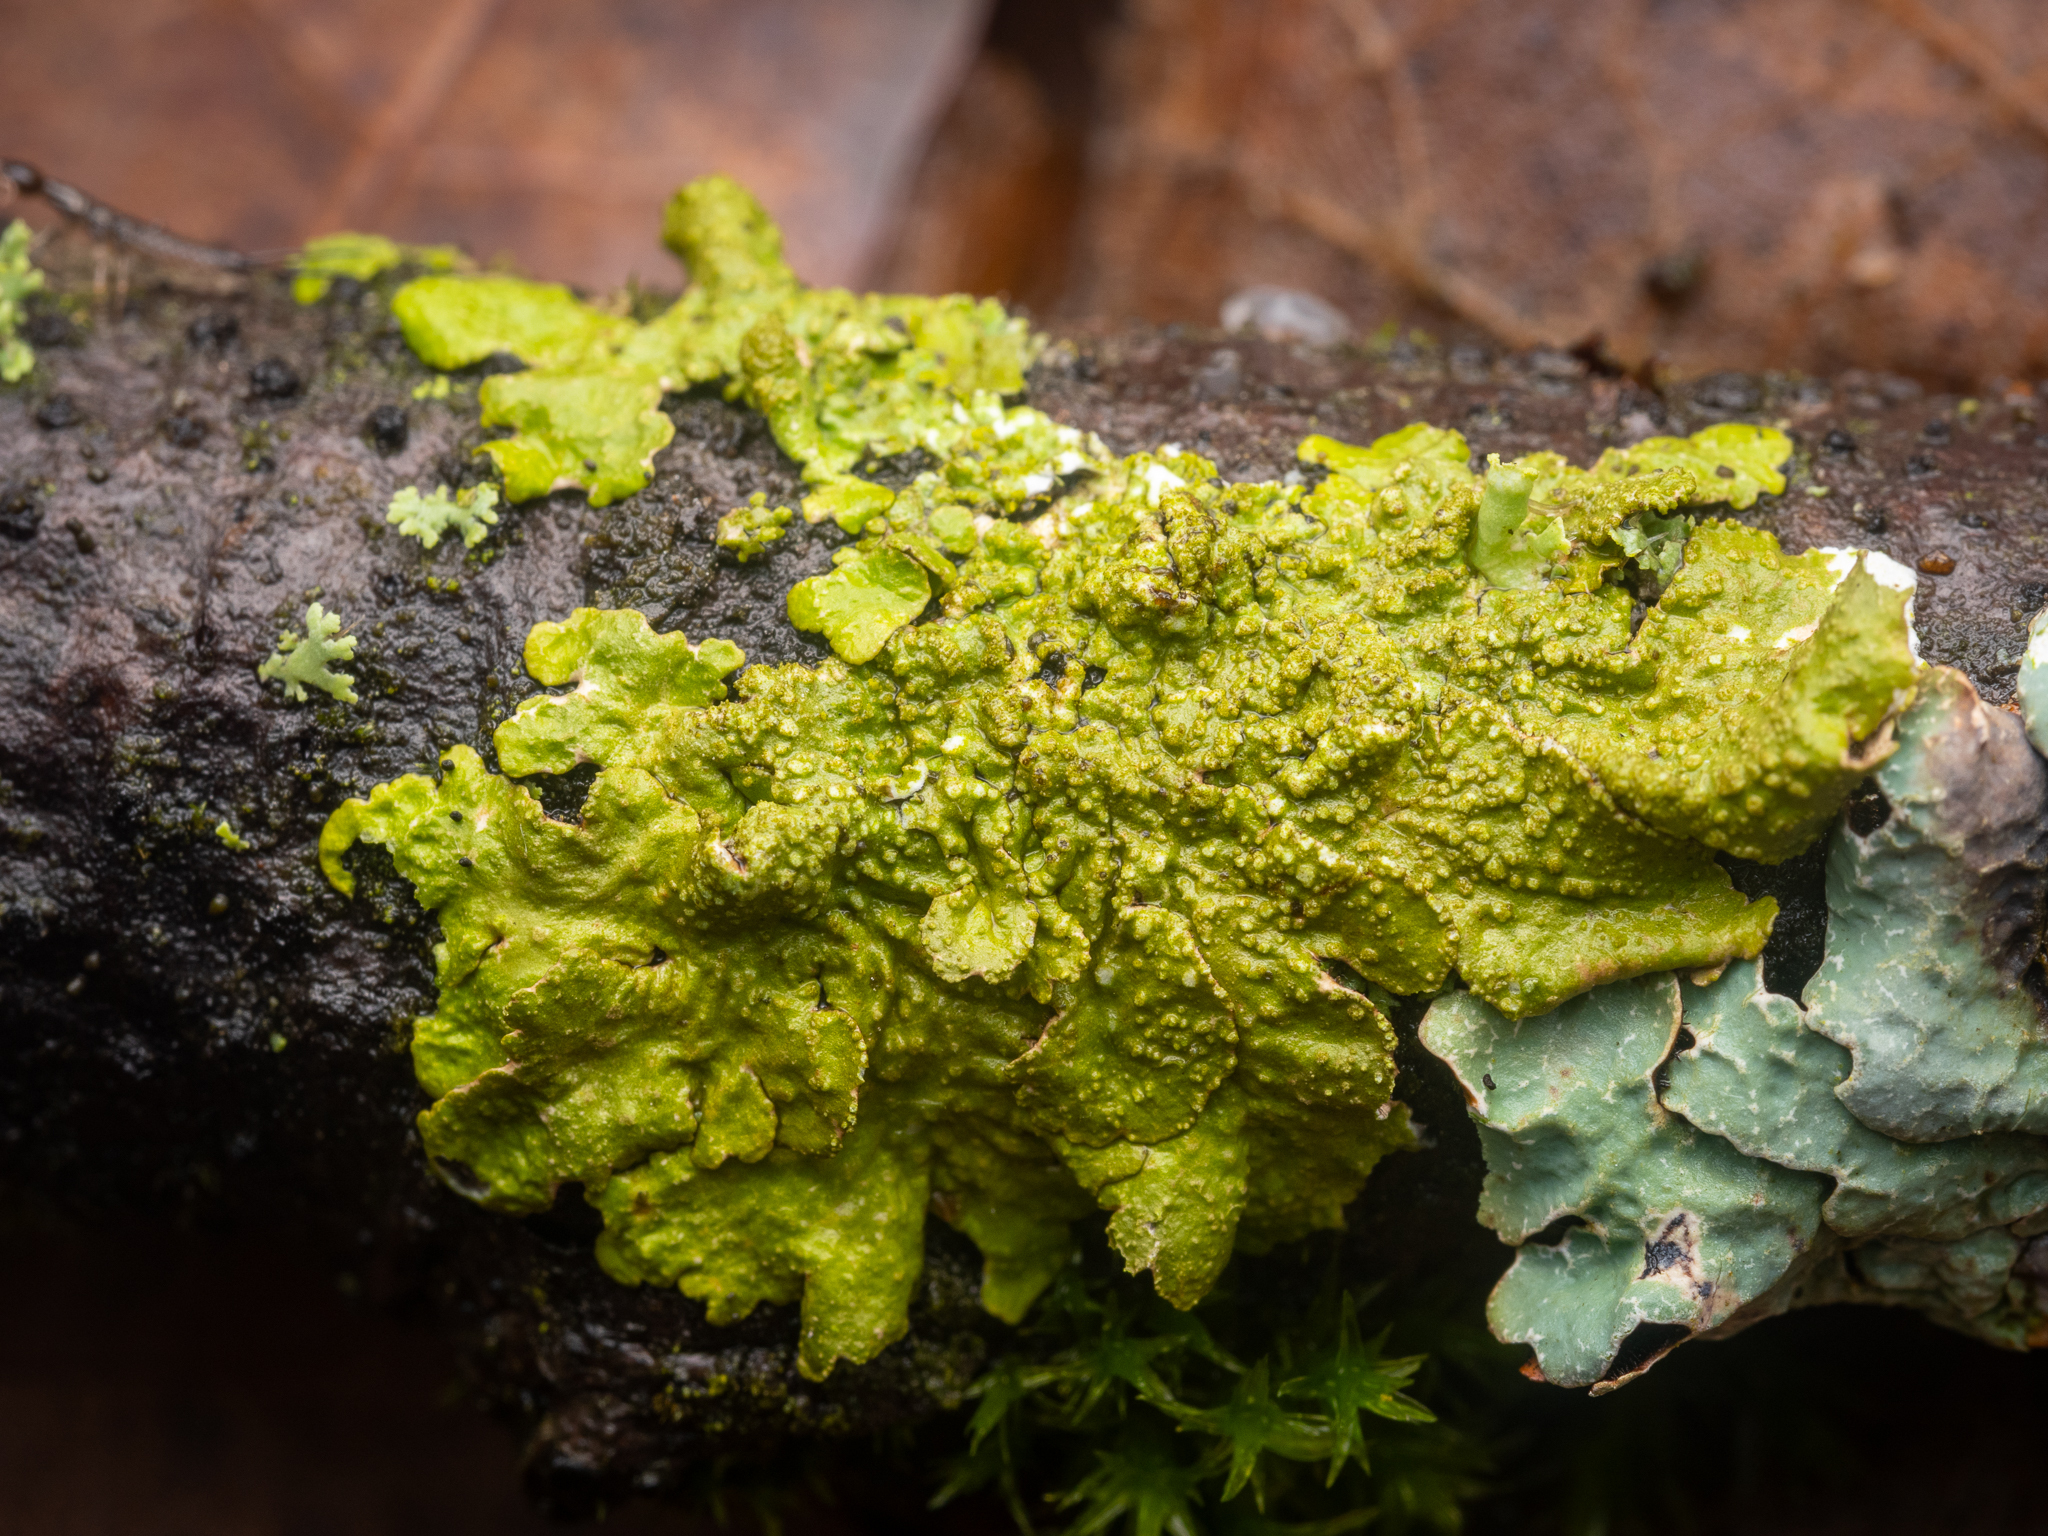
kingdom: Fungi
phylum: Ascomycota
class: Lecanoromycetes
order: Lecanorales
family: Parmeliaceae
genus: Melanelixia
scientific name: Melanelixia subaurifera
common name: Abraded camouflage lichen
